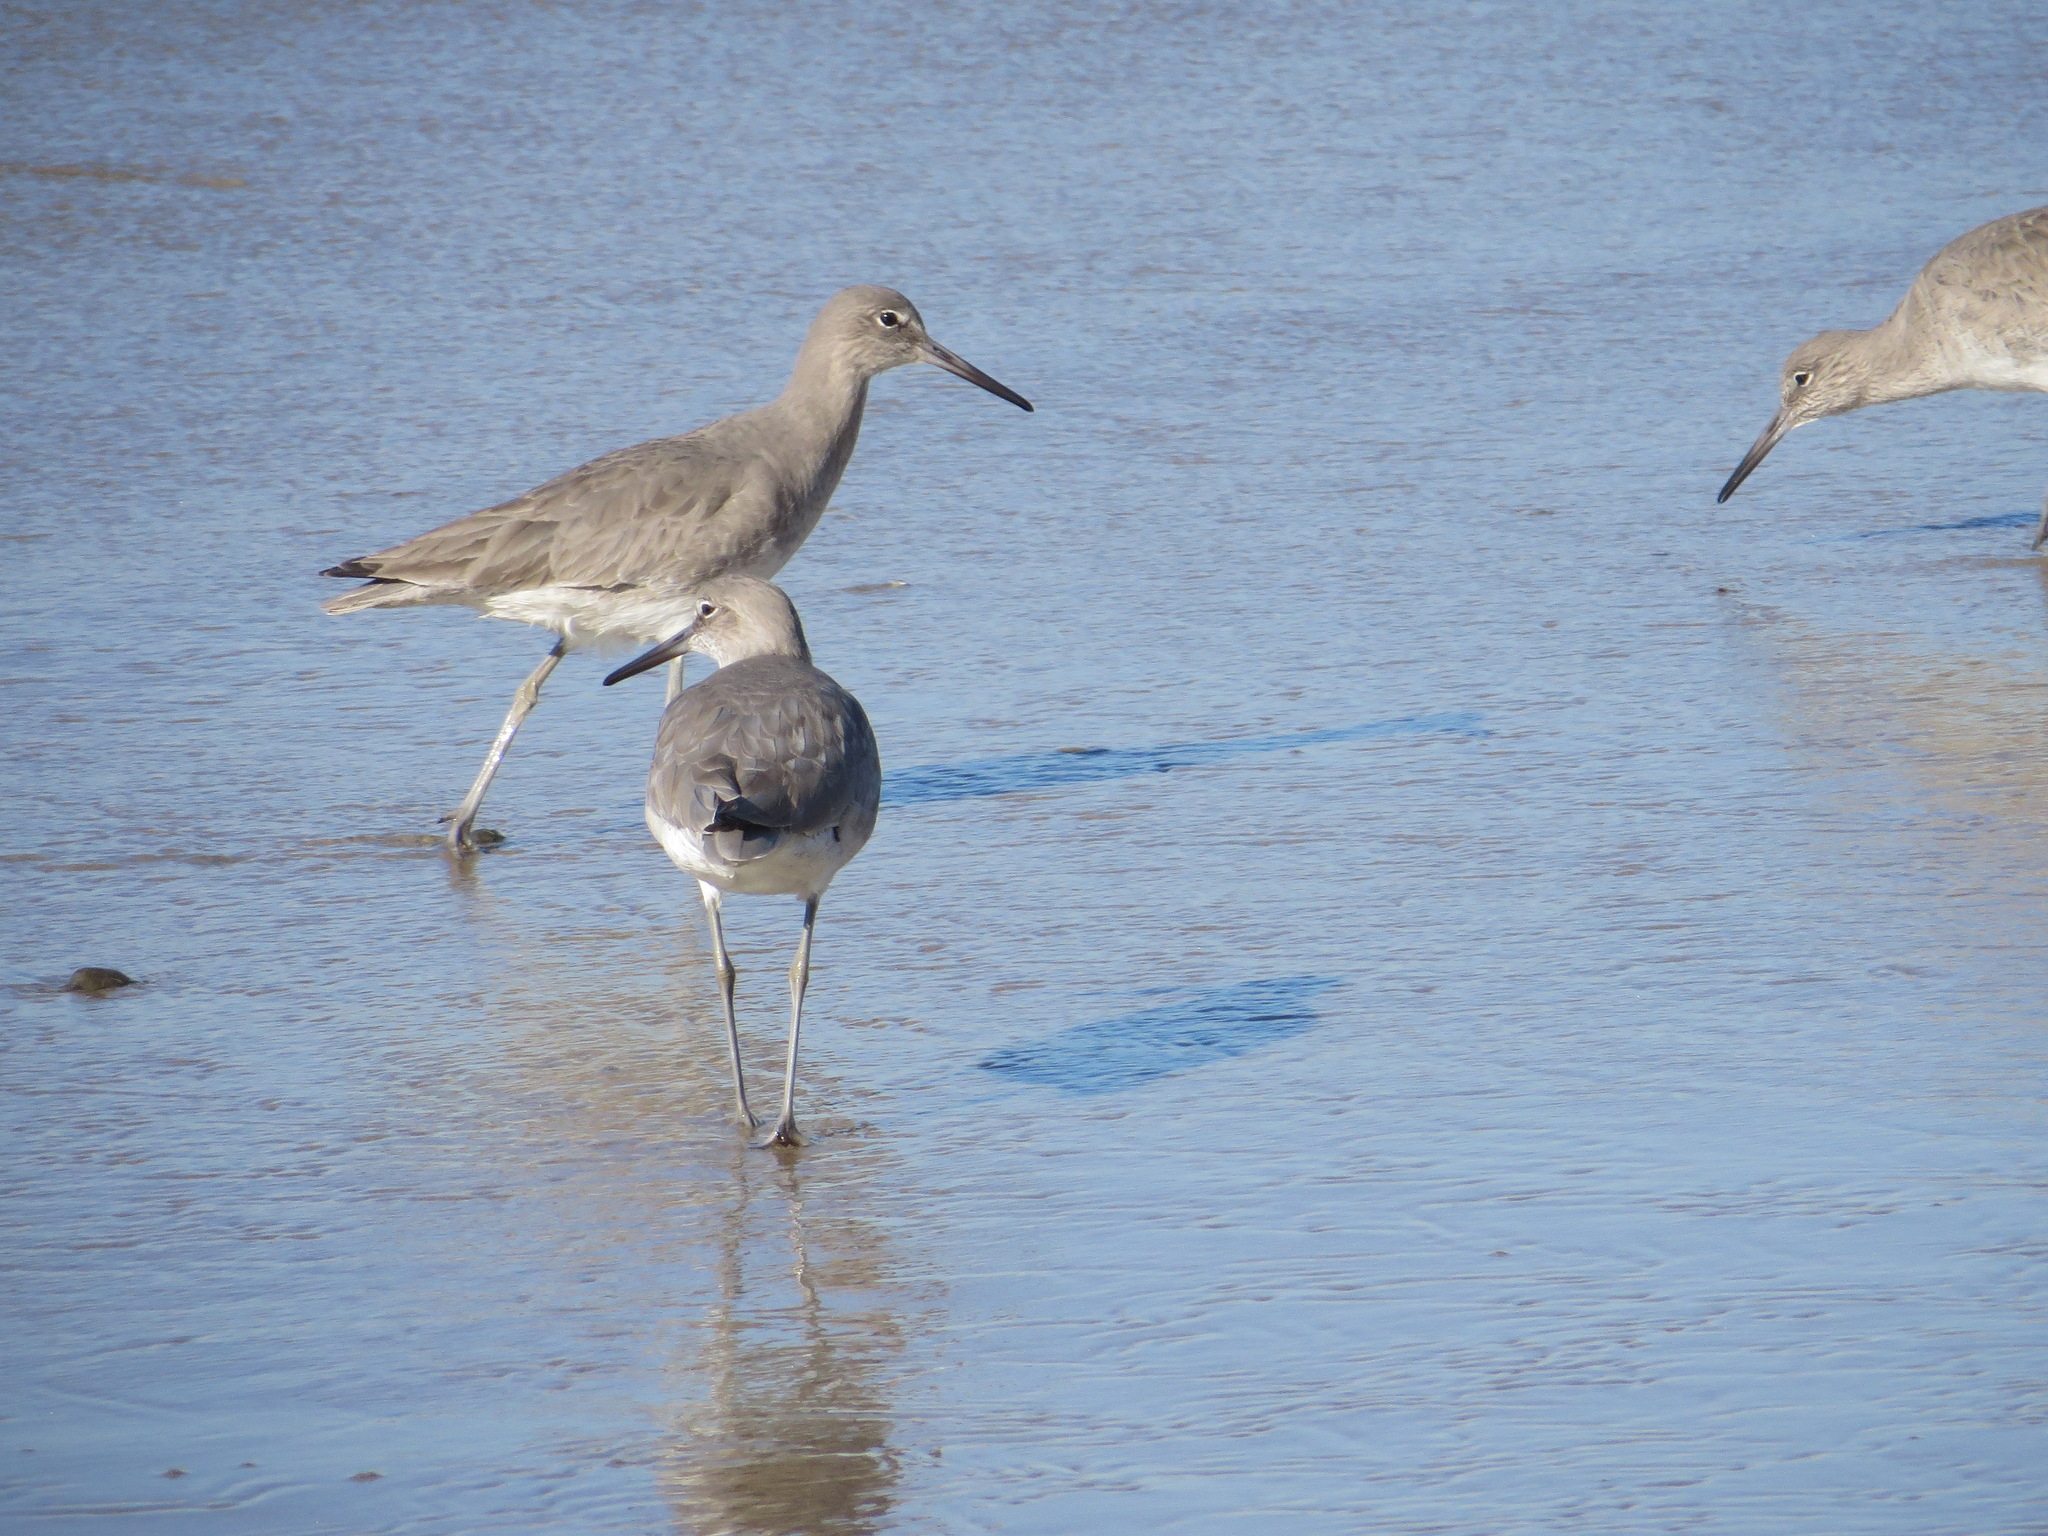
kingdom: Animalia
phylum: Chordata
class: Aves
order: Charadriiformes
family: Scolopacidae
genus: Tringa
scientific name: Tringa semipalmata
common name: Willet
